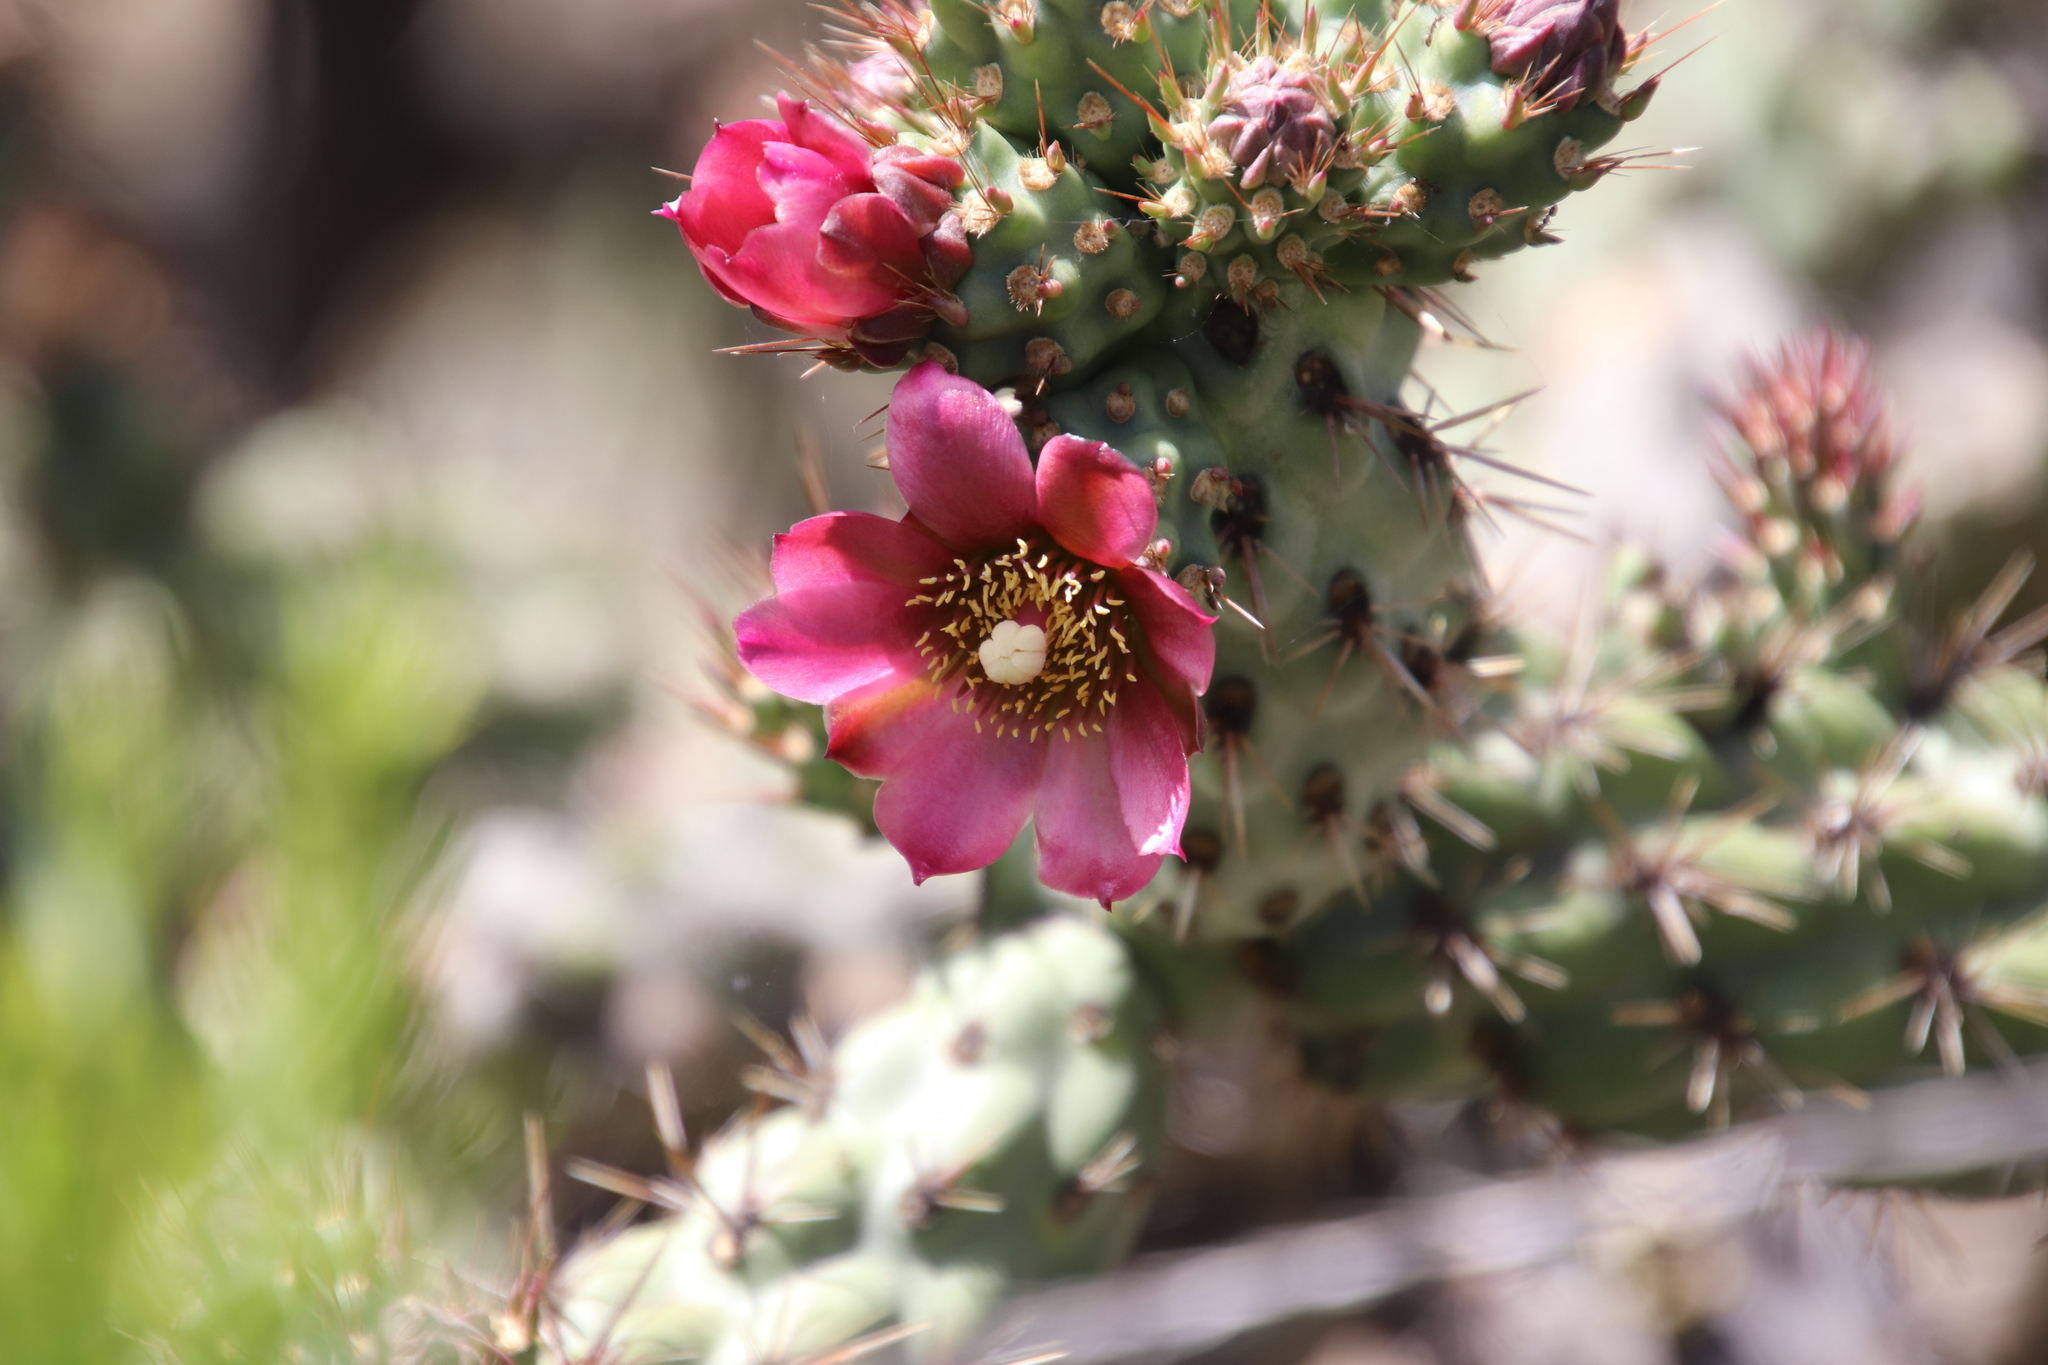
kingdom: Plantae
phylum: Tracheophyta
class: Magnoliopsida
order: Caryophyllales
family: Cactaceae
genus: Cylindropuntia
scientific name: Cylindropuntia prolifera
